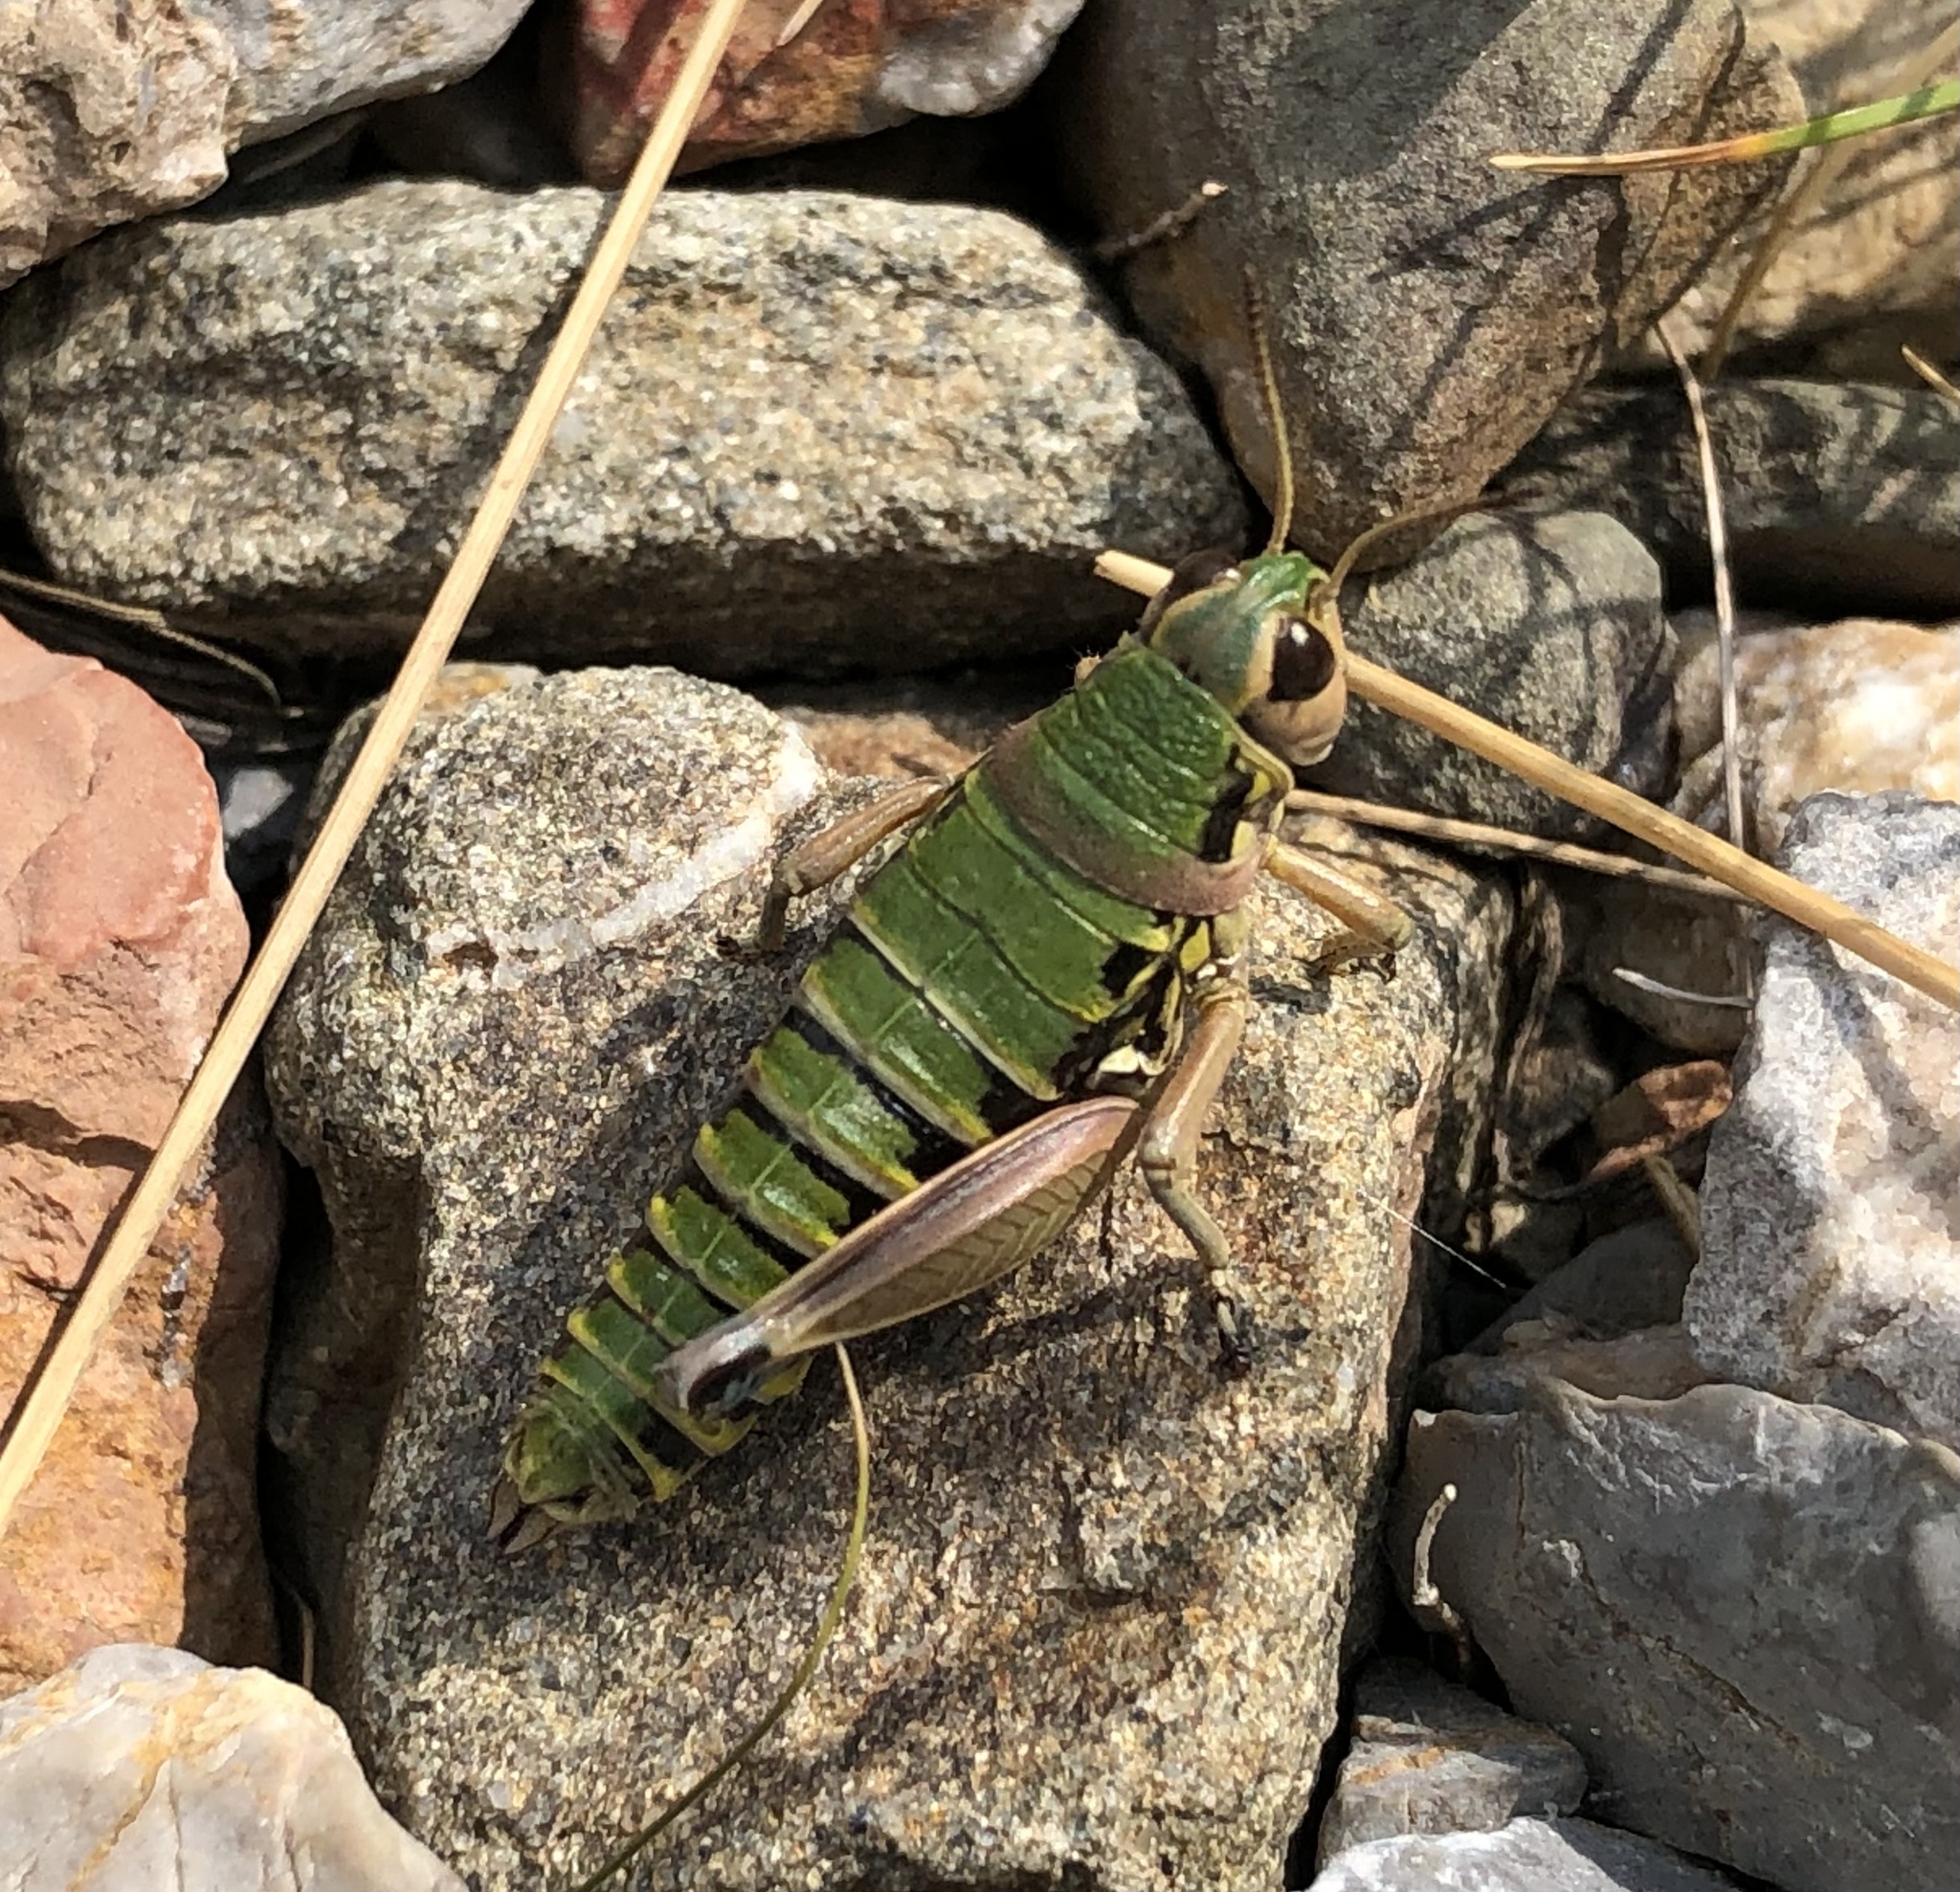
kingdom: Animalia
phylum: Arthropoda
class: Insecta
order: Orthoptera
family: Acrididae
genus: Podisma
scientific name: Podisma pedestris
